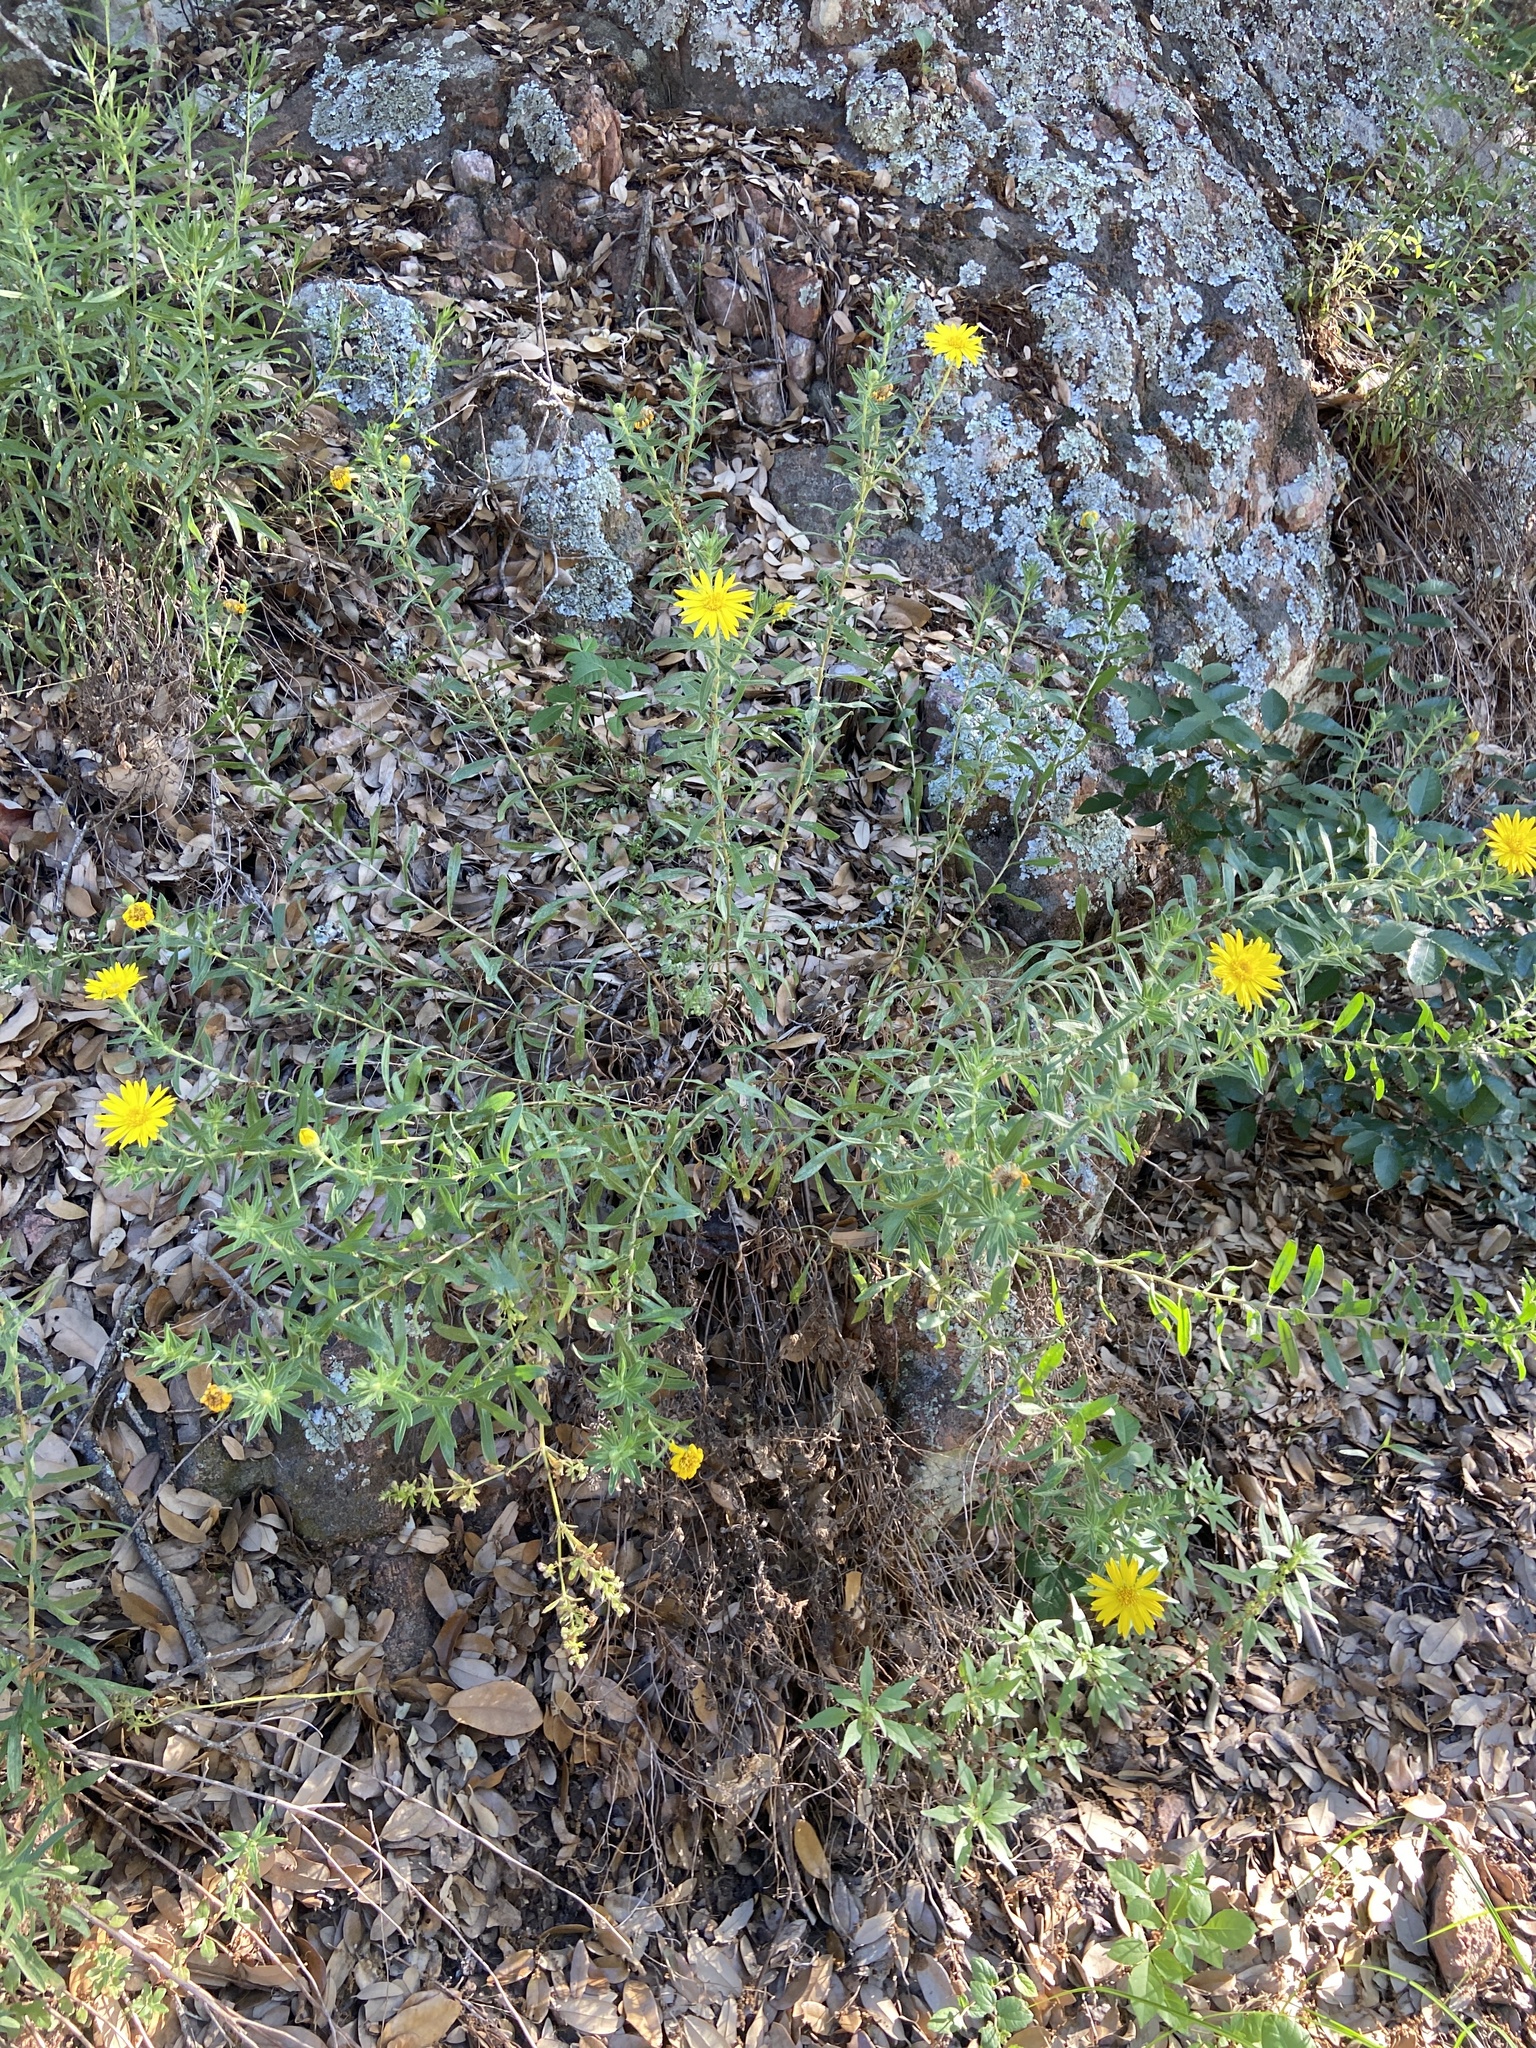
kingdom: Plantae
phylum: Tracheophyta
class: Magnoliopsida
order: Asterales
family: Asteraceae
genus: Heterotheca
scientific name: Heterotheca stenophylla
